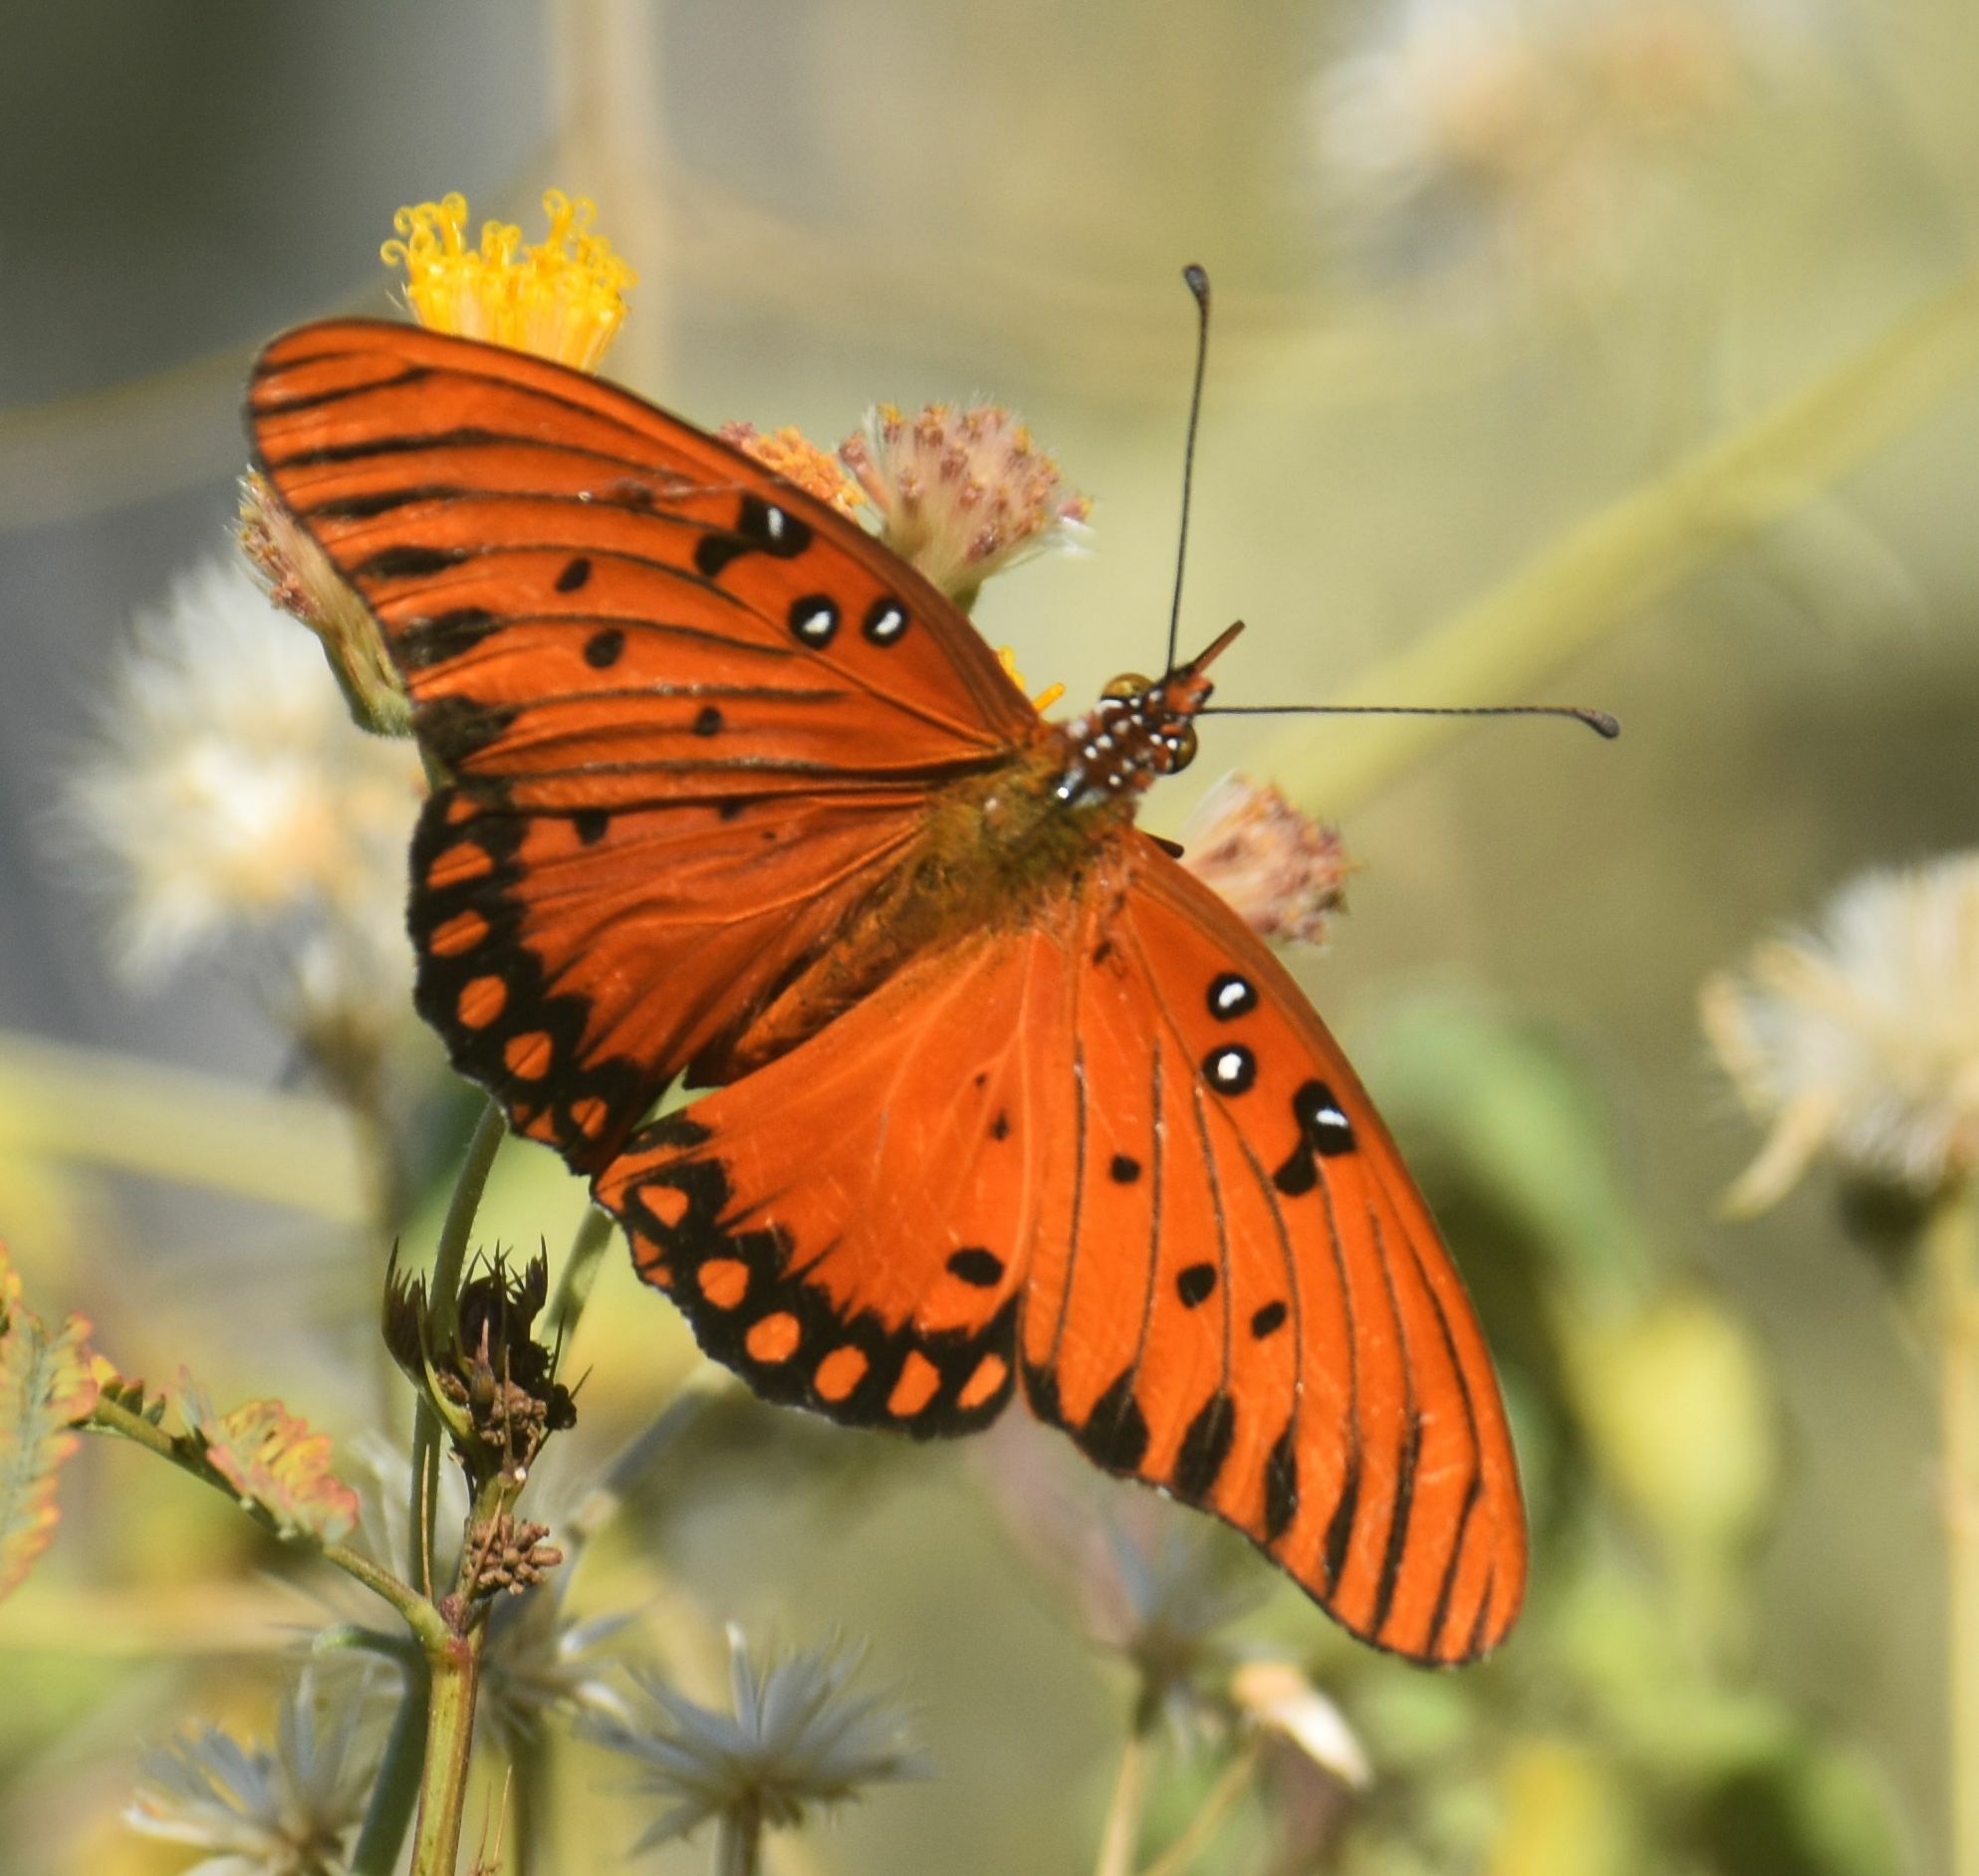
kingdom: Animalia
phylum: Arthropoda
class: Insecta
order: Lepidoptera
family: Nymphalidae
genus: Dione
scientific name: Dione vanillae
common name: Gulf fritillary
